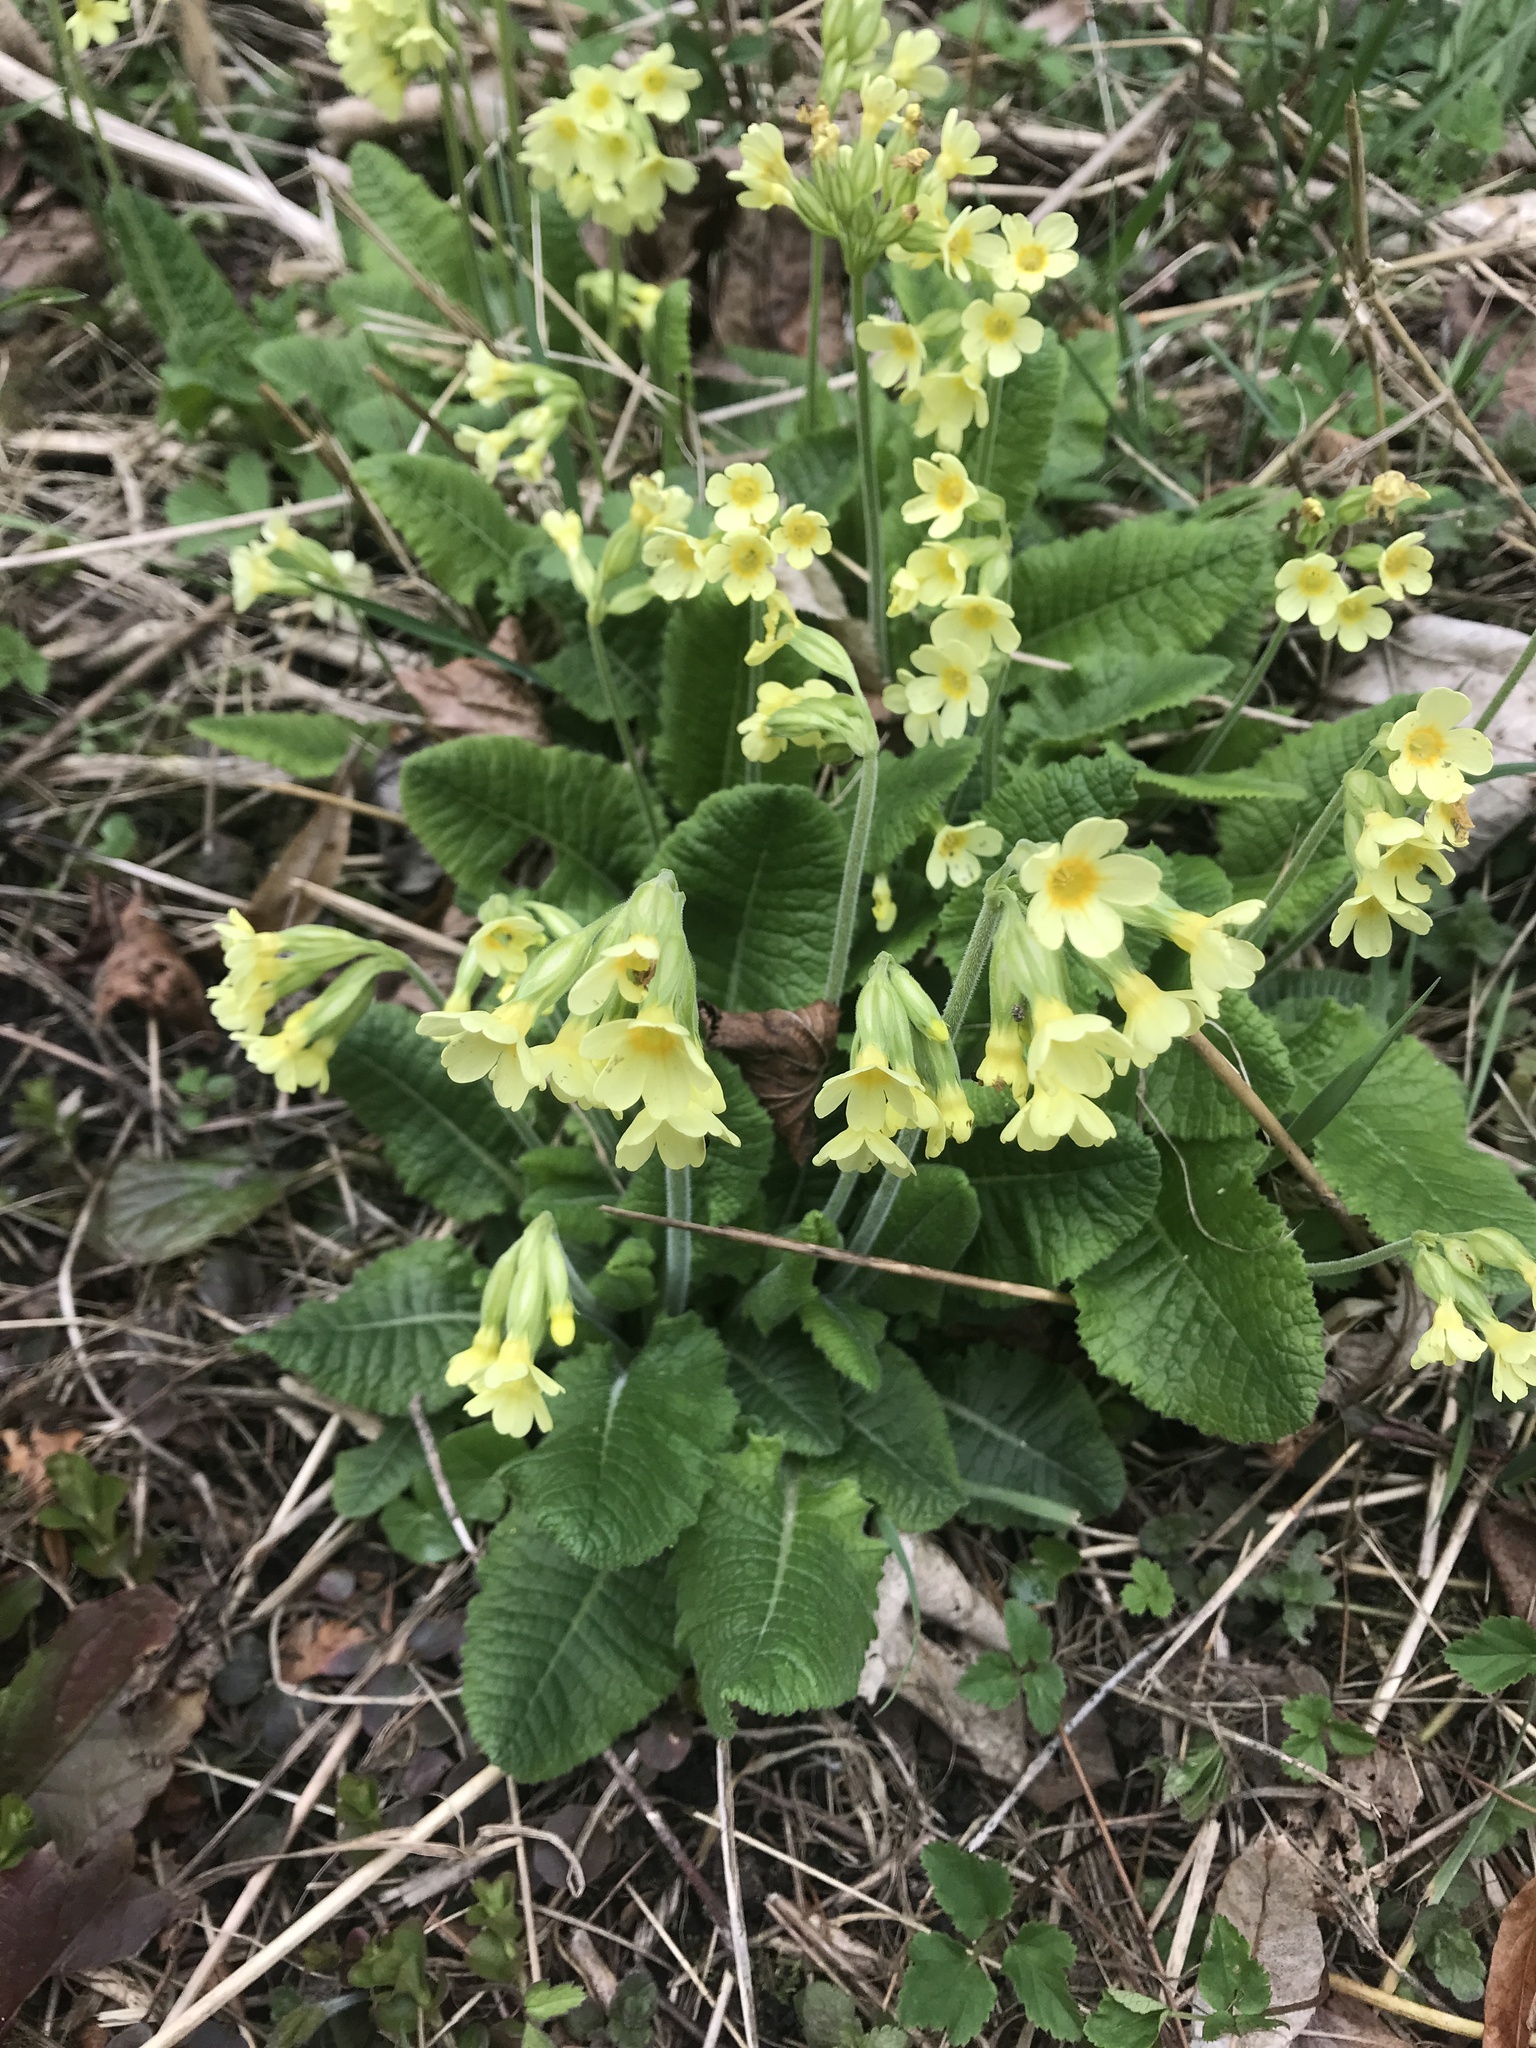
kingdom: Plantae
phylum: Tracheophyta
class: Magnoliopsida
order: Ericales
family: Primulaceae
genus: Primula
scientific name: Primula elatior
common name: Oxlip
